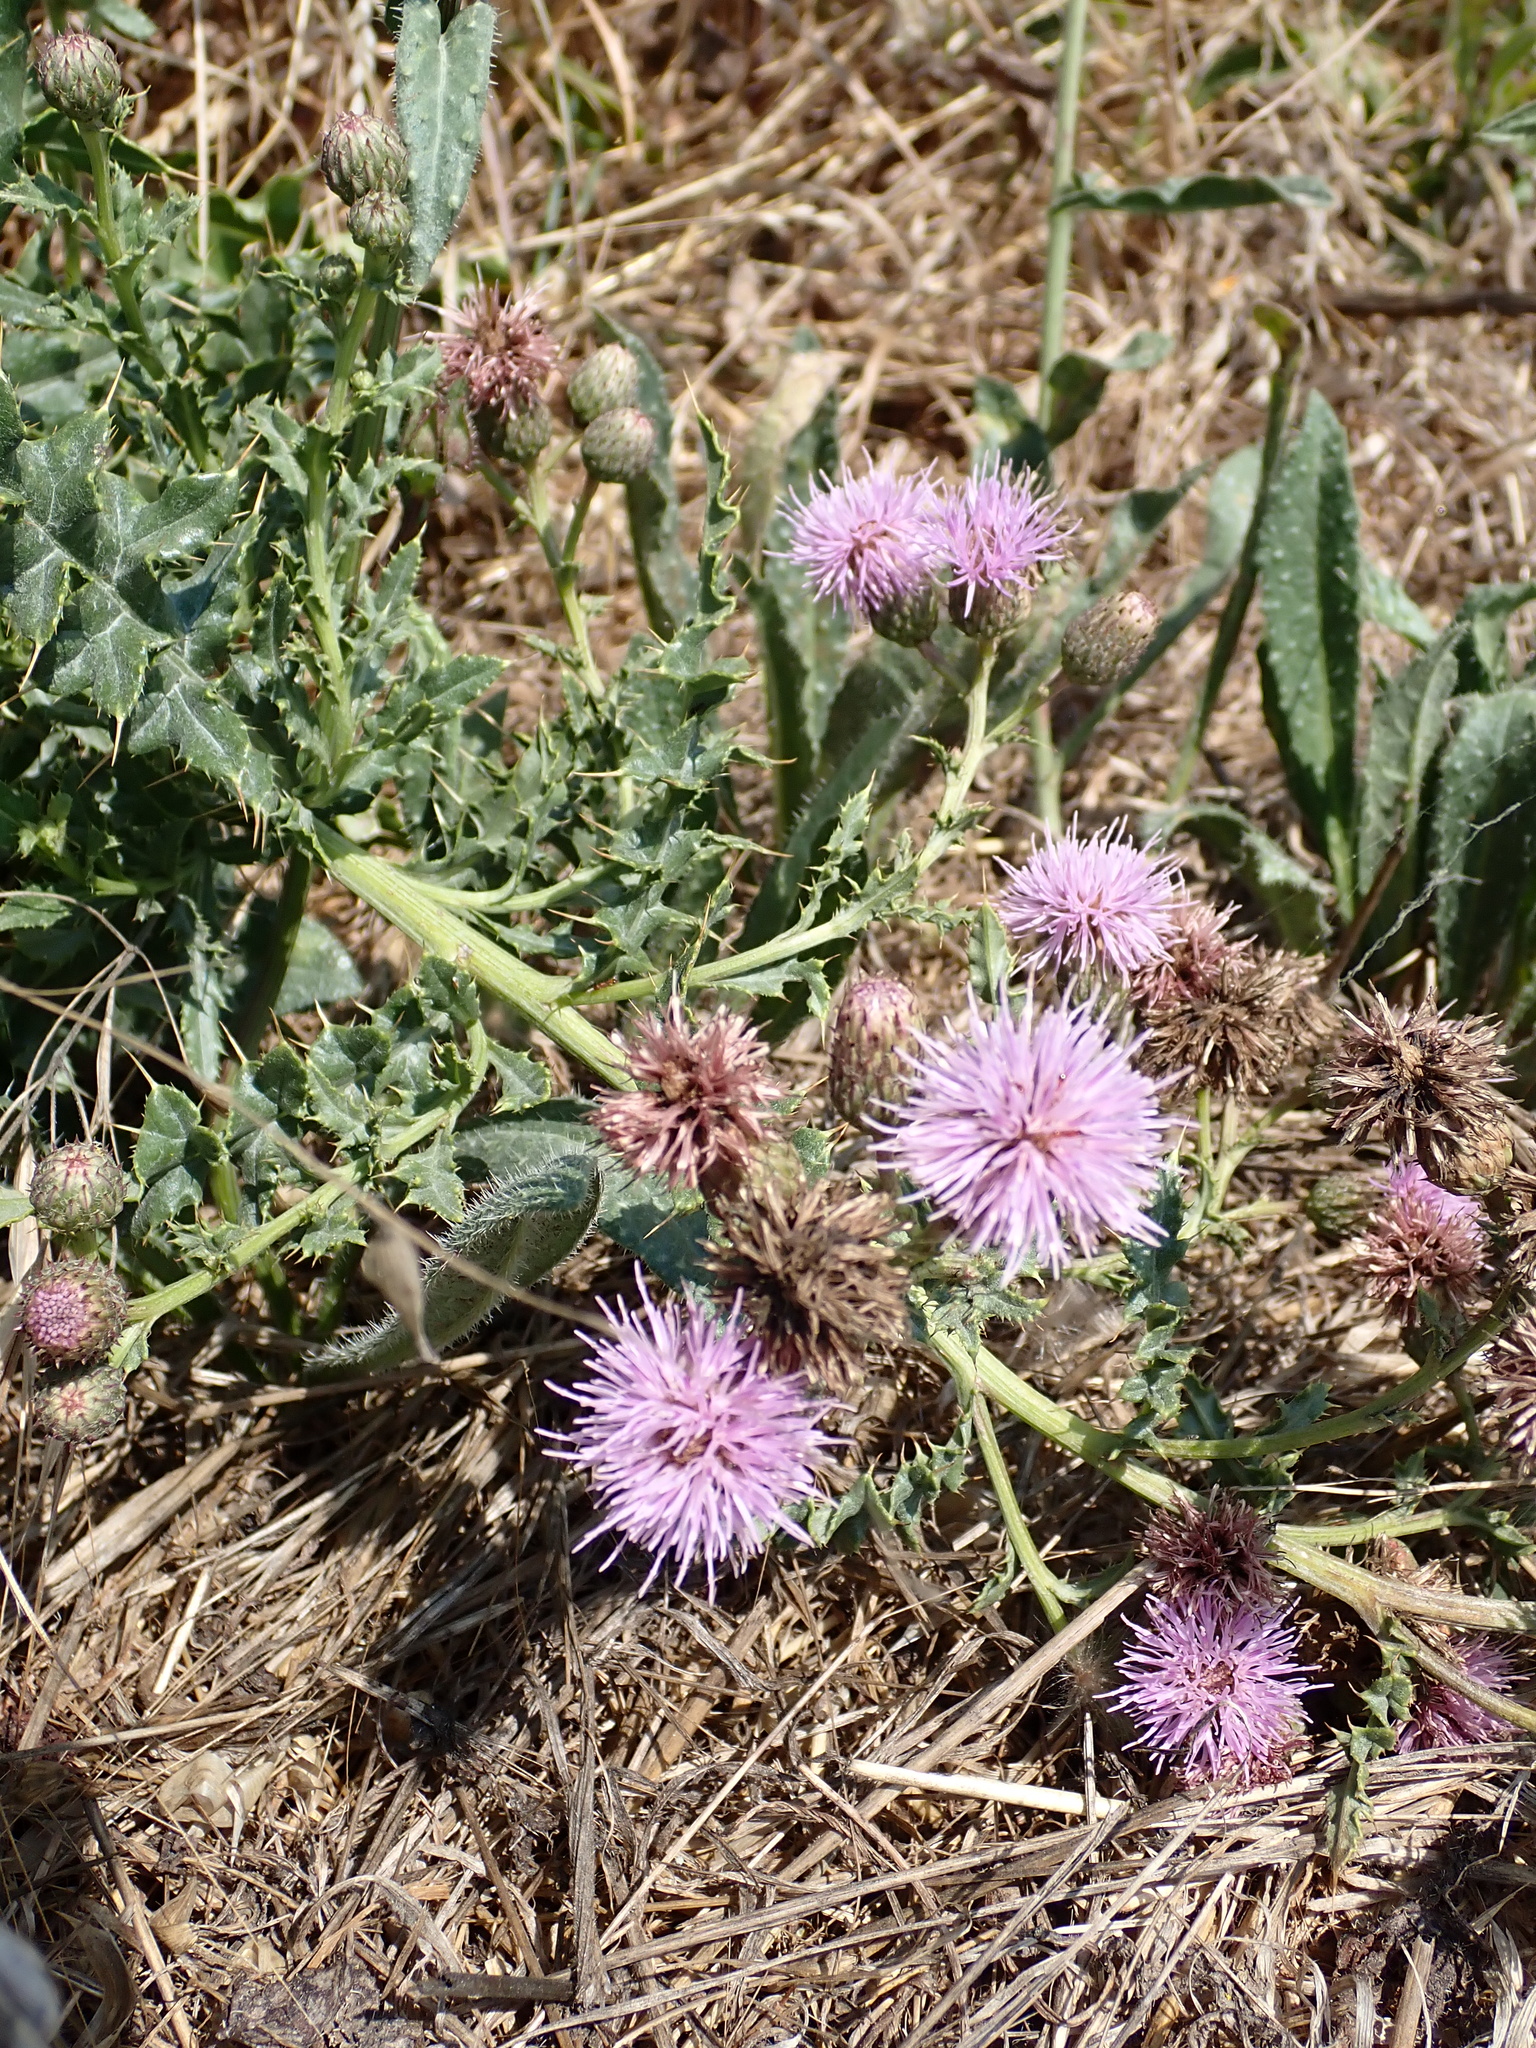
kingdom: Plantae
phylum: Tracheophyta
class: Magnoliopsida
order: Asterales
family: Asteraceae
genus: Cirsium
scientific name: Cirsium arvense
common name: Creeping thistle
